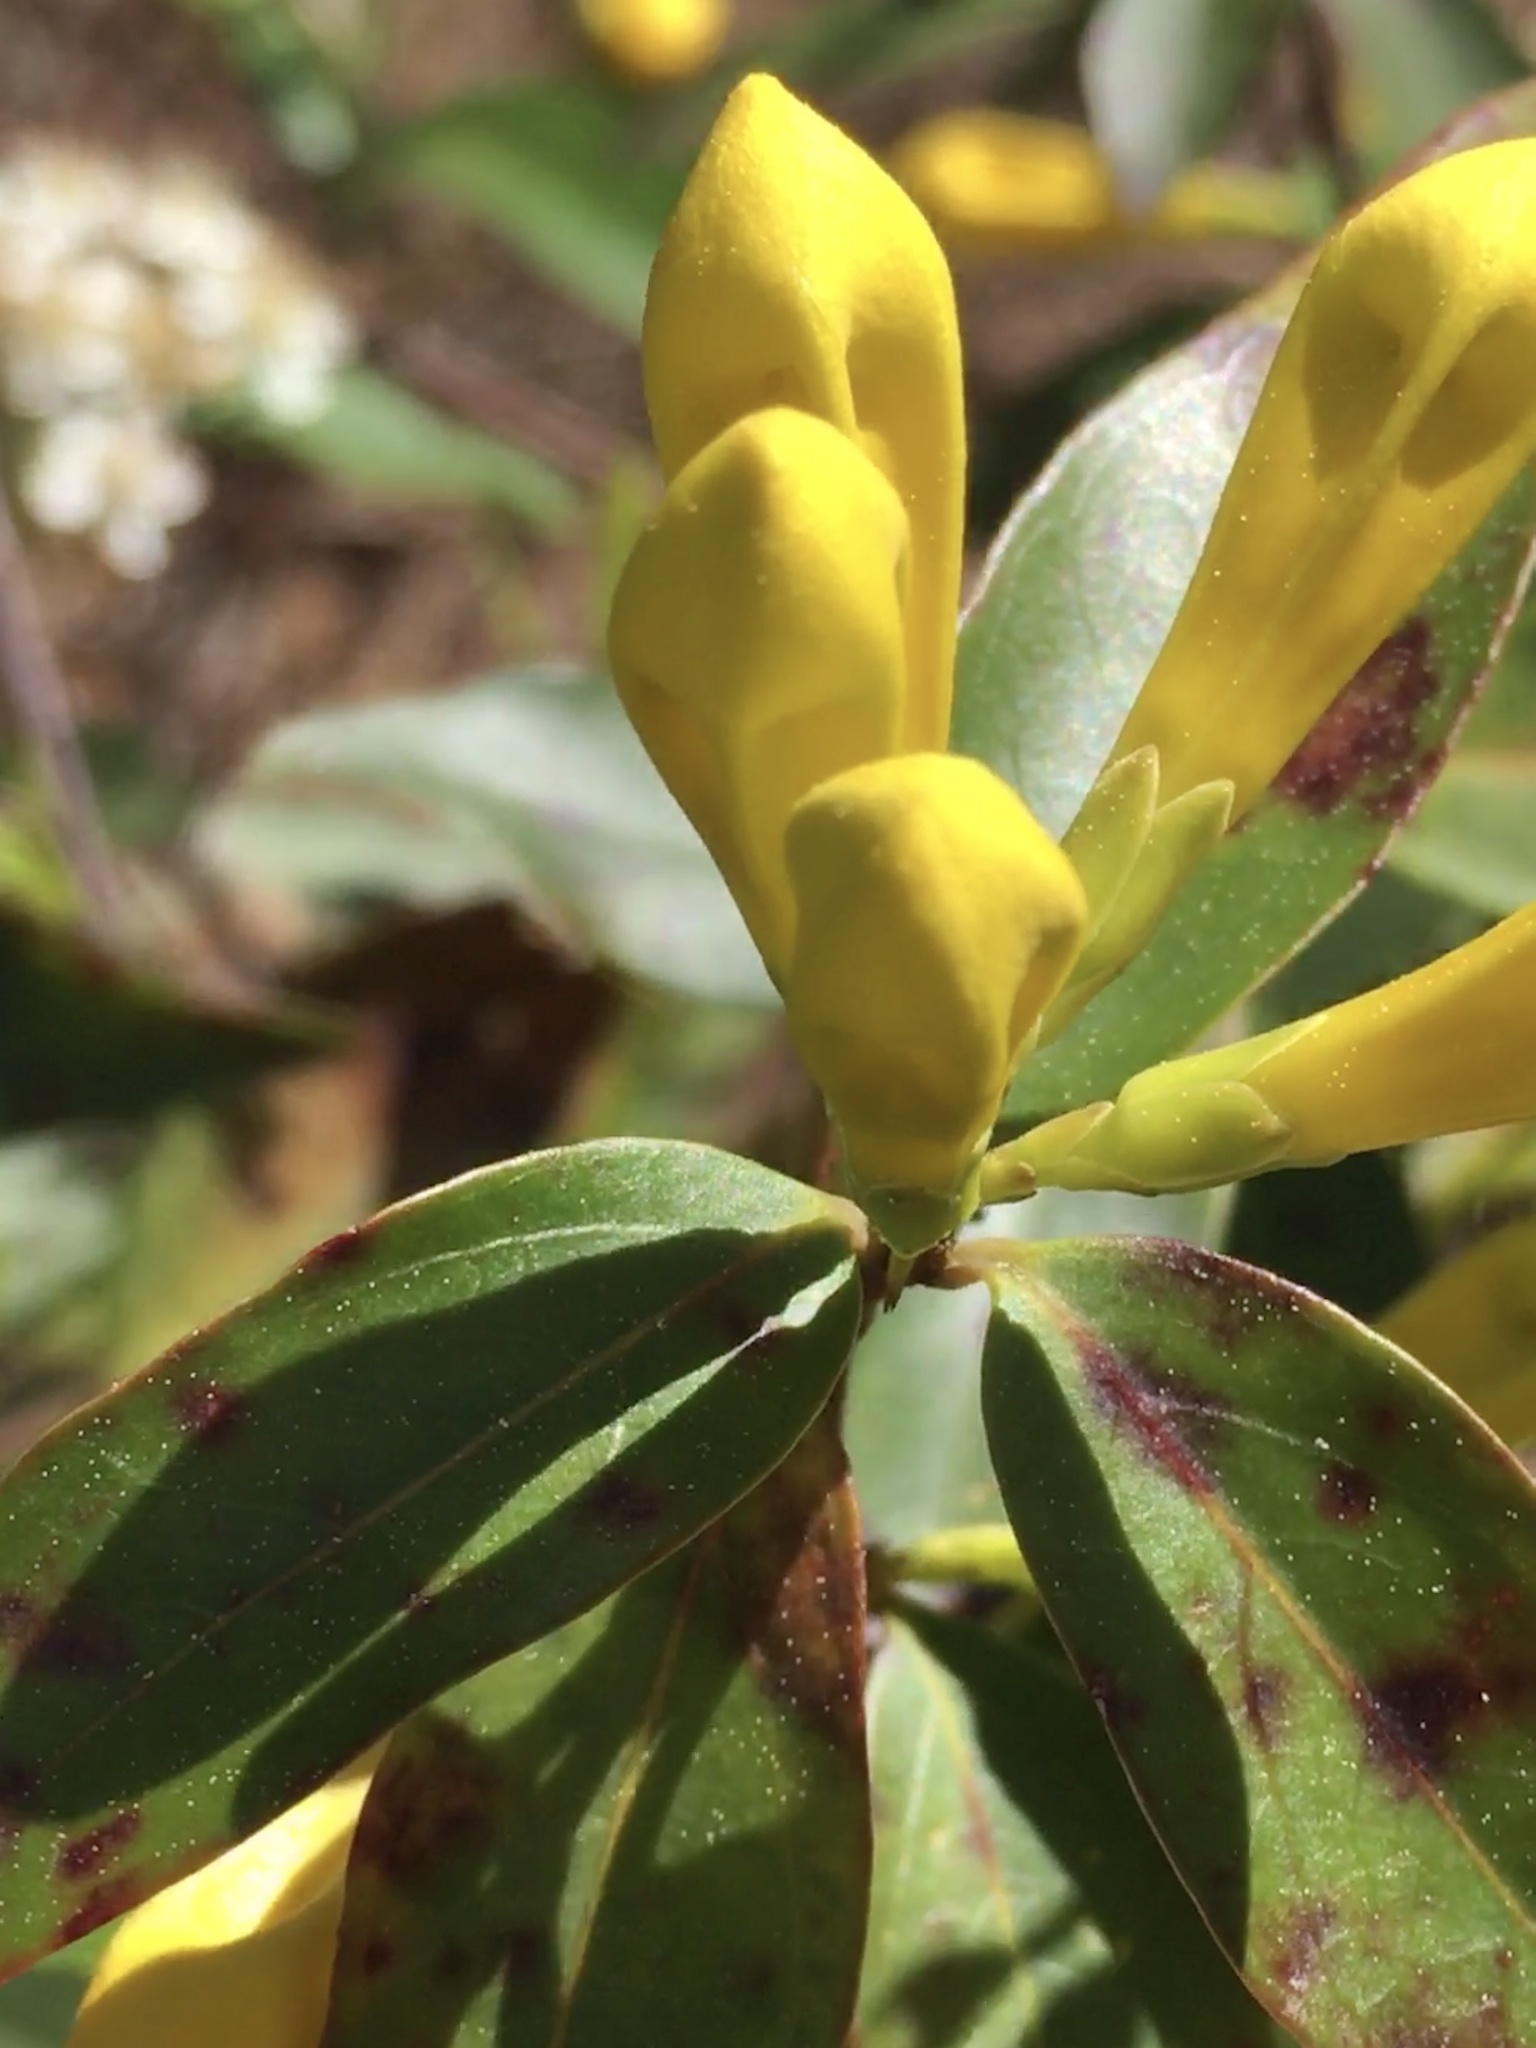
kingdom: Plantae
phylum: Tracheophyta
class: Magnoliopsida
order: Gentianales
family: Gelsemiaceae
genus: Gelsemium
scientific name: Gelsemium sempervirens
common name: Carolina-jasmine
